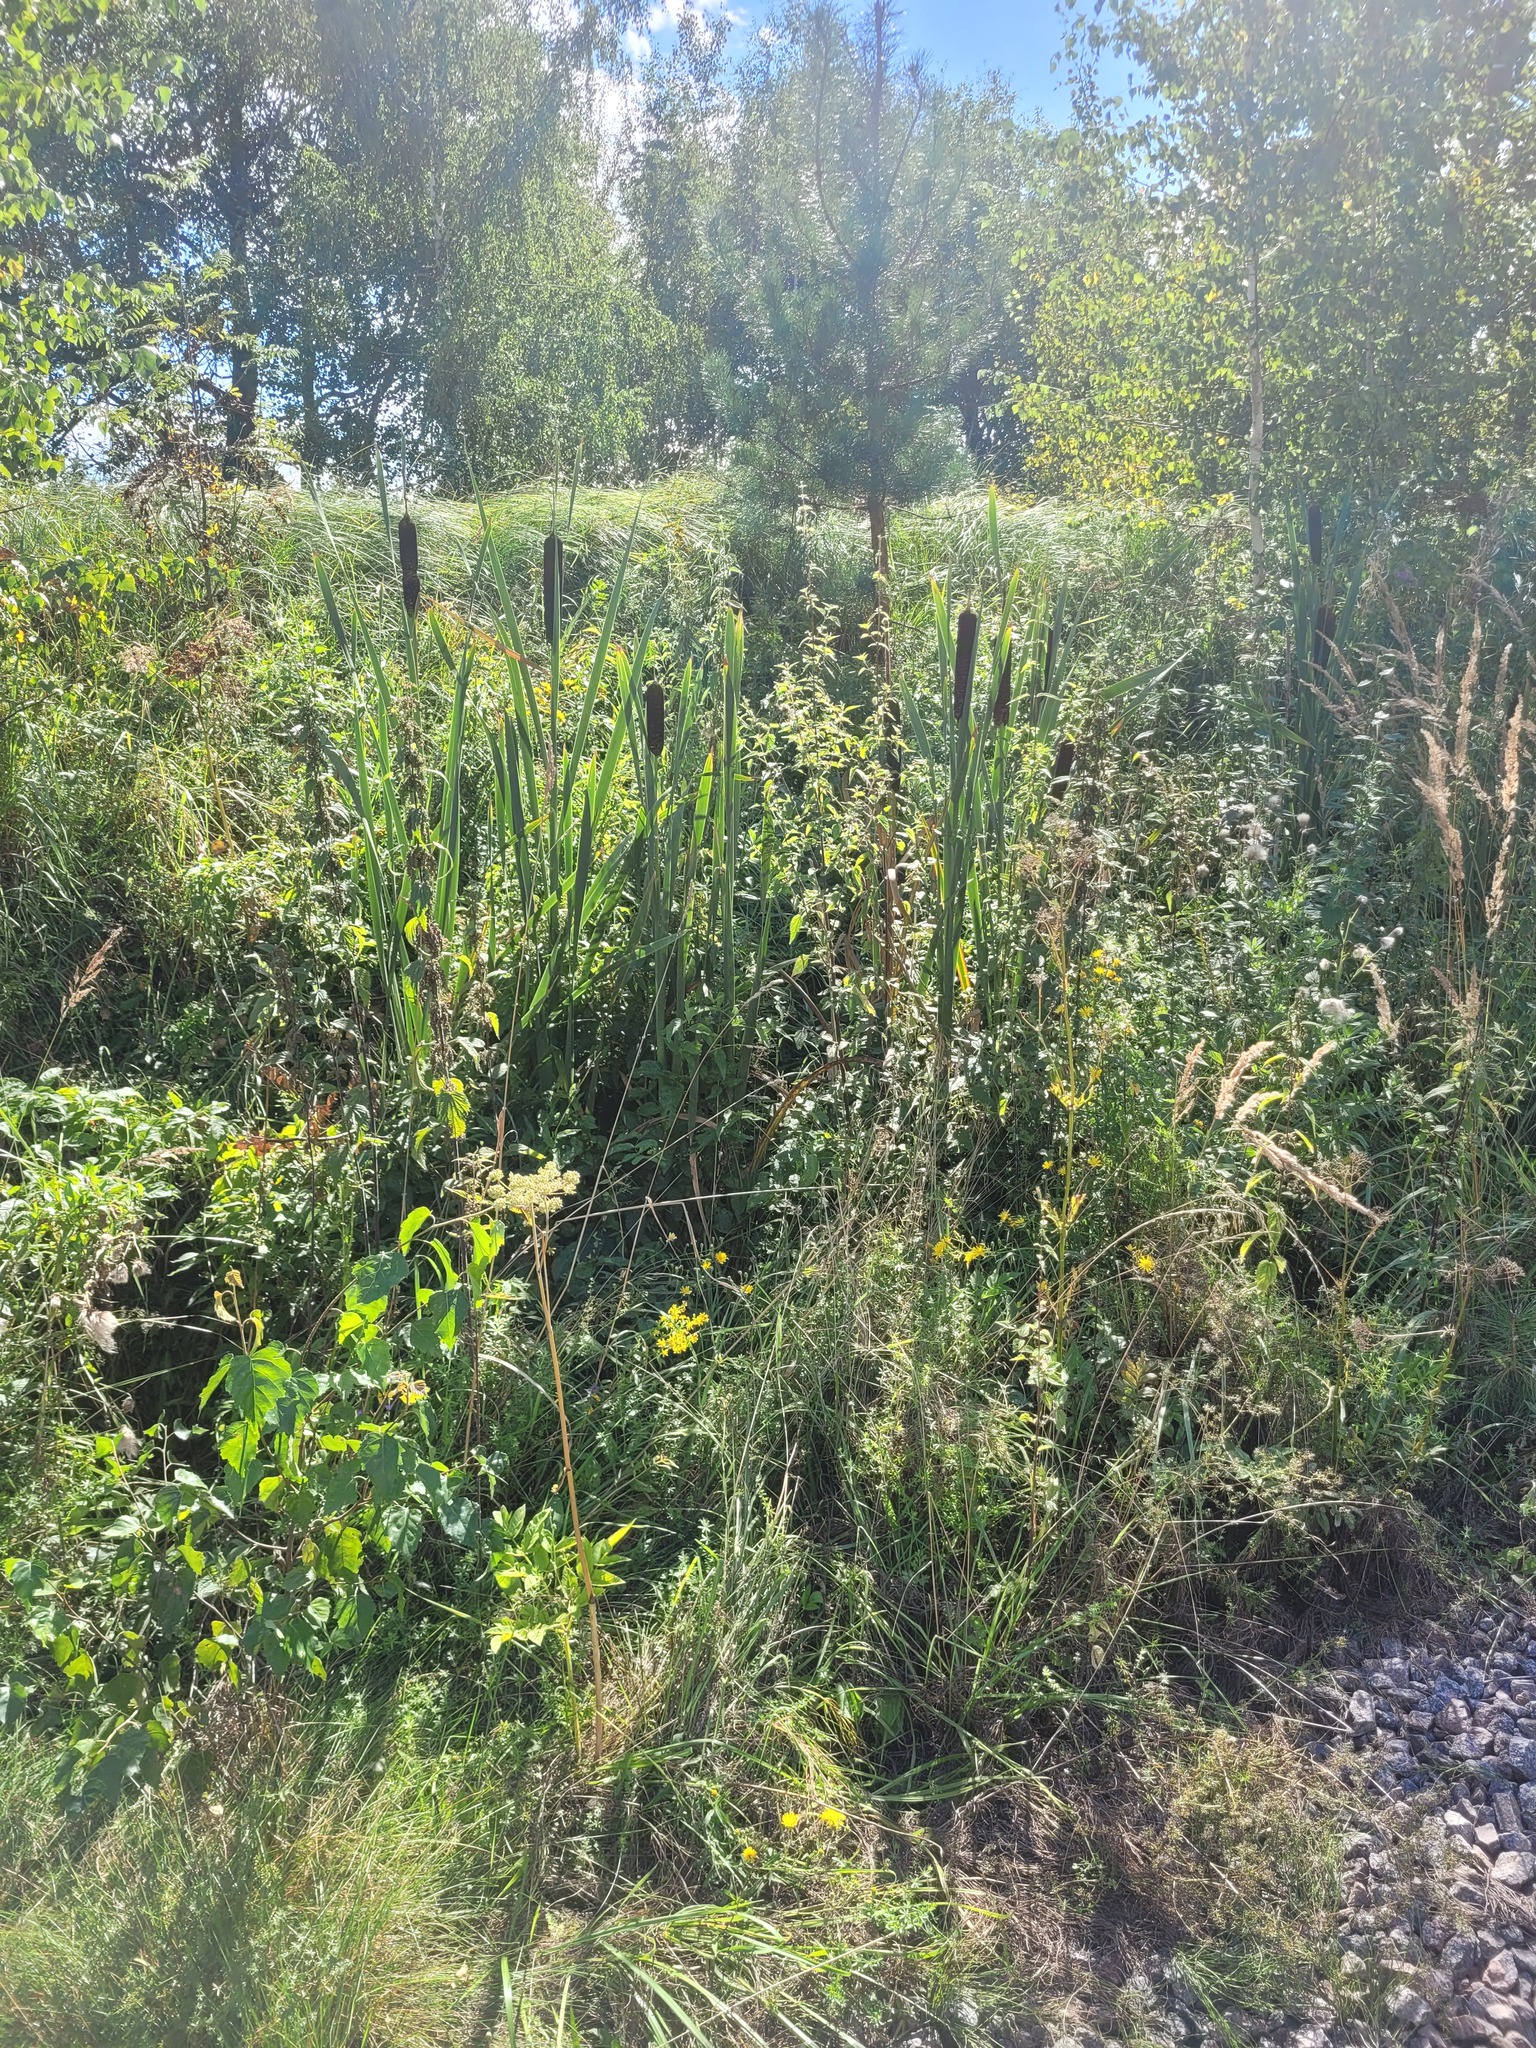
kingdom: Plantae
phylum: Tracheophyta
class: Liliopsida
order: Poales
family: Typhaceae
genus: Typha
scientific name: Typha latifolia
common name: Broadleaf cattail
